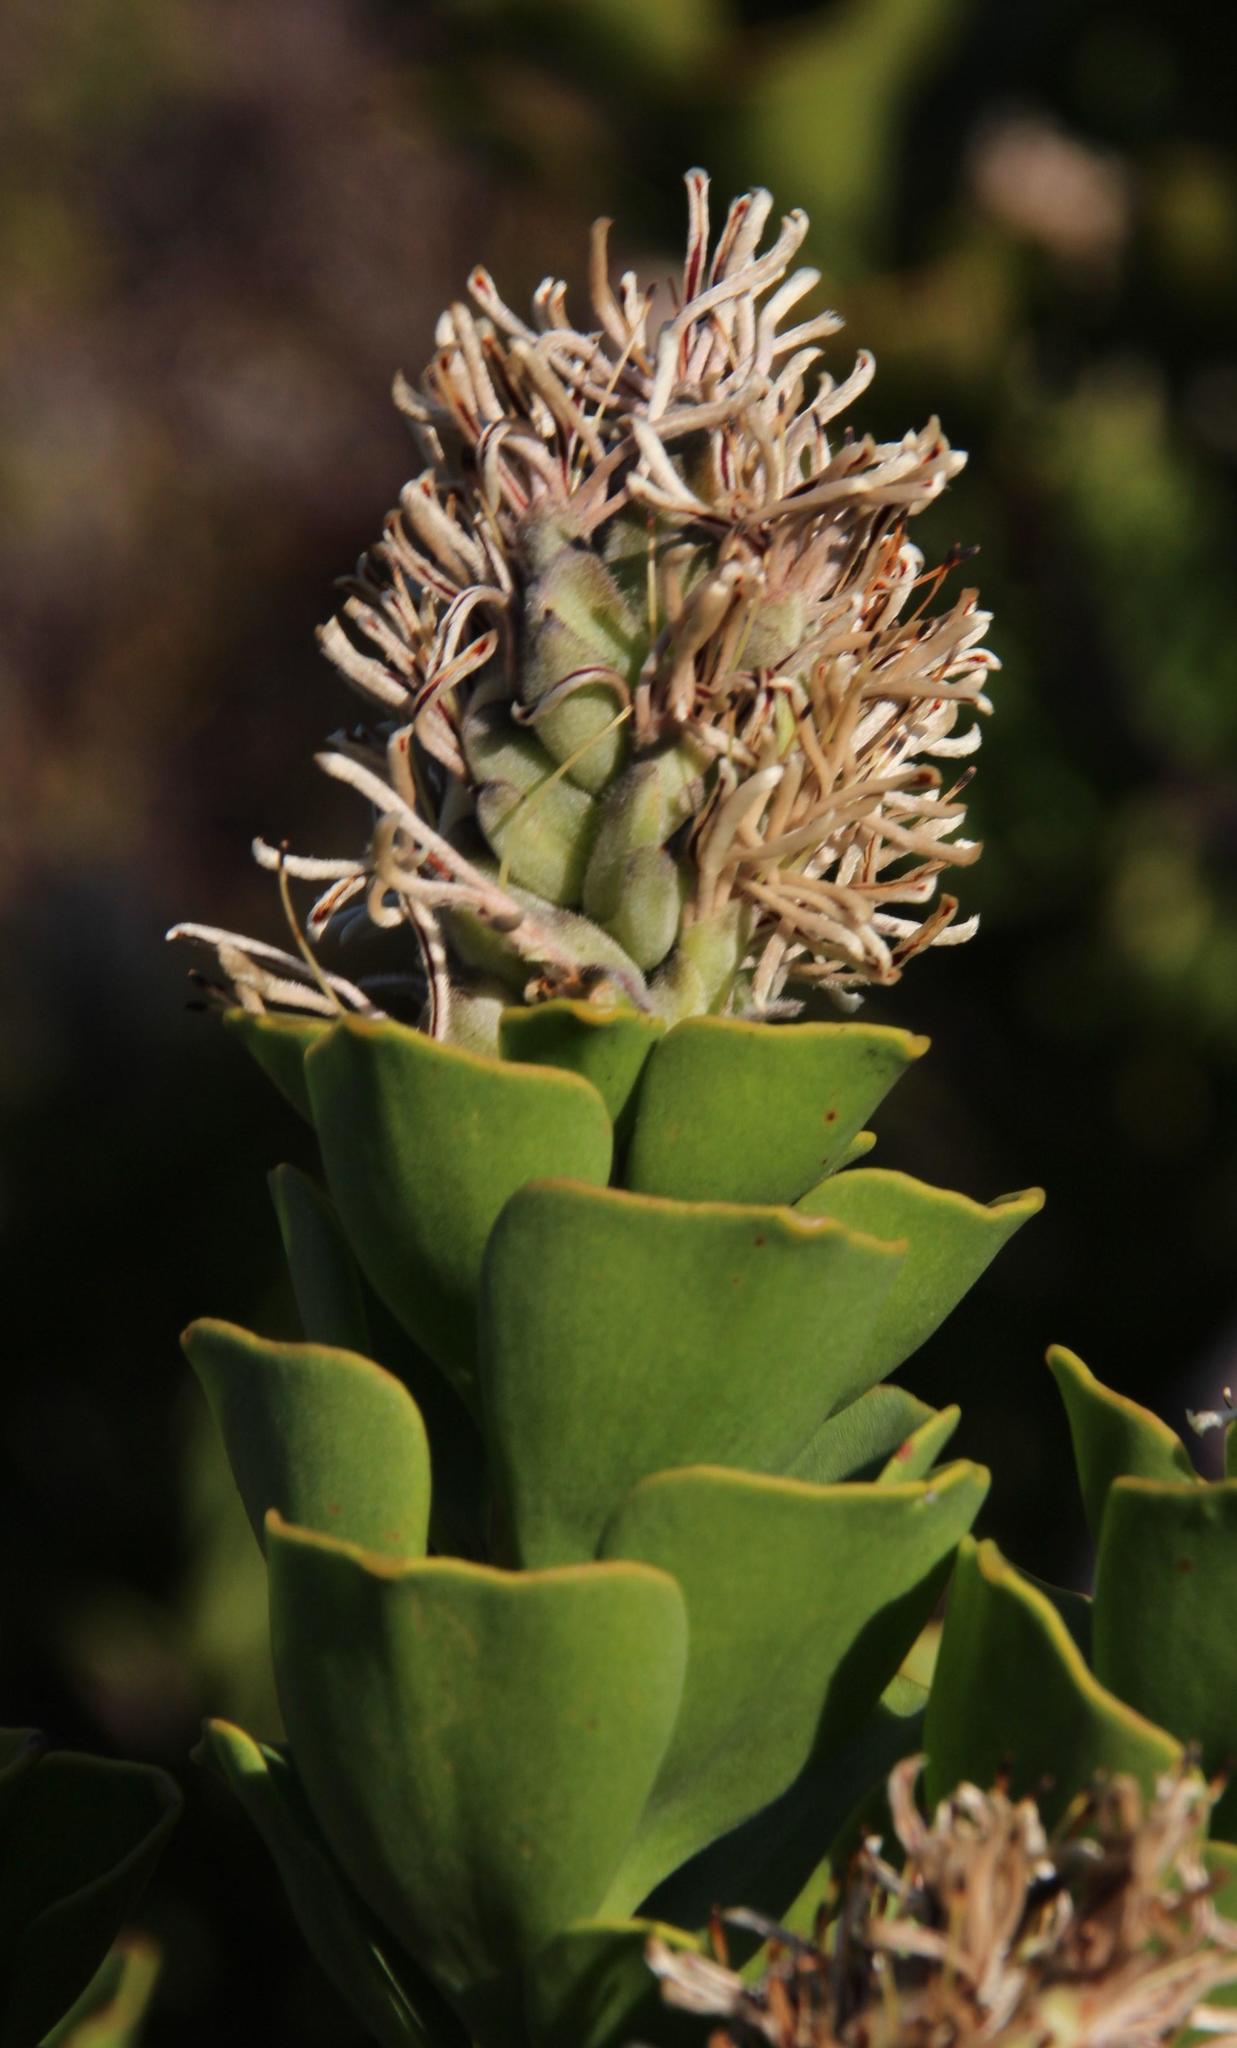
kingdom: Plantae
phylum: Tracheophyta
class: Magnoliopsida
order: Proteales
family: Proteaceae
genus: Paranomus
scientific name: Paranomus sceptrum-gustavianus
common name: King gustav's sceptre
